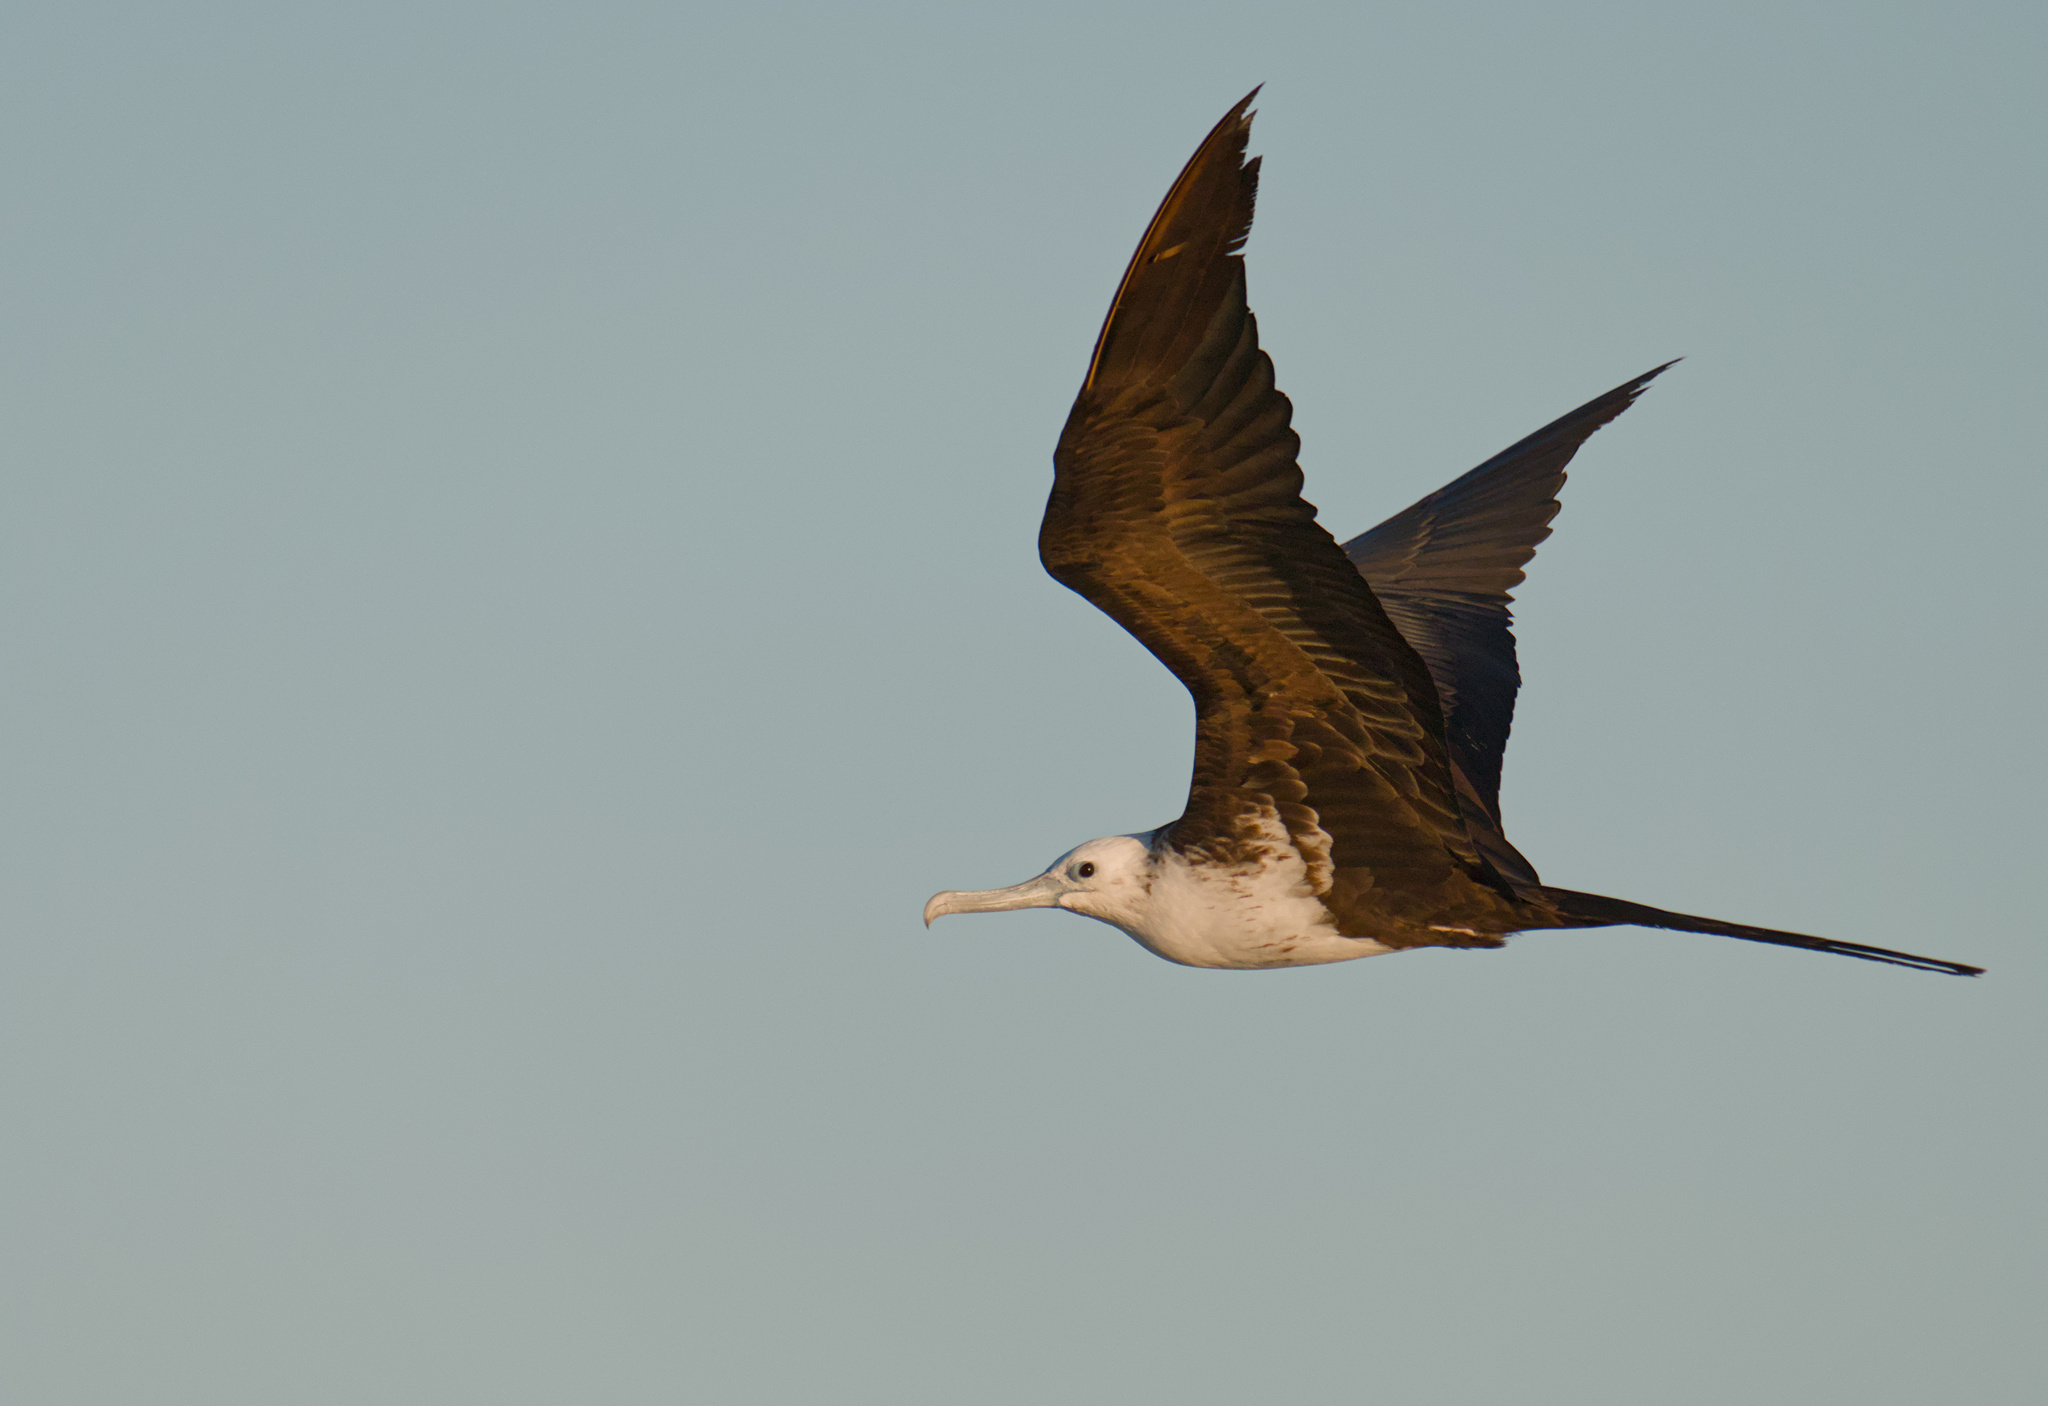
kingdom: Animalia
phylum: Chordata
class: Aves
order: Suliformes
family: Fregatidae
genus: Fregata
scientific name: Fregata magnificens
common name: Magnificent frigatebird
